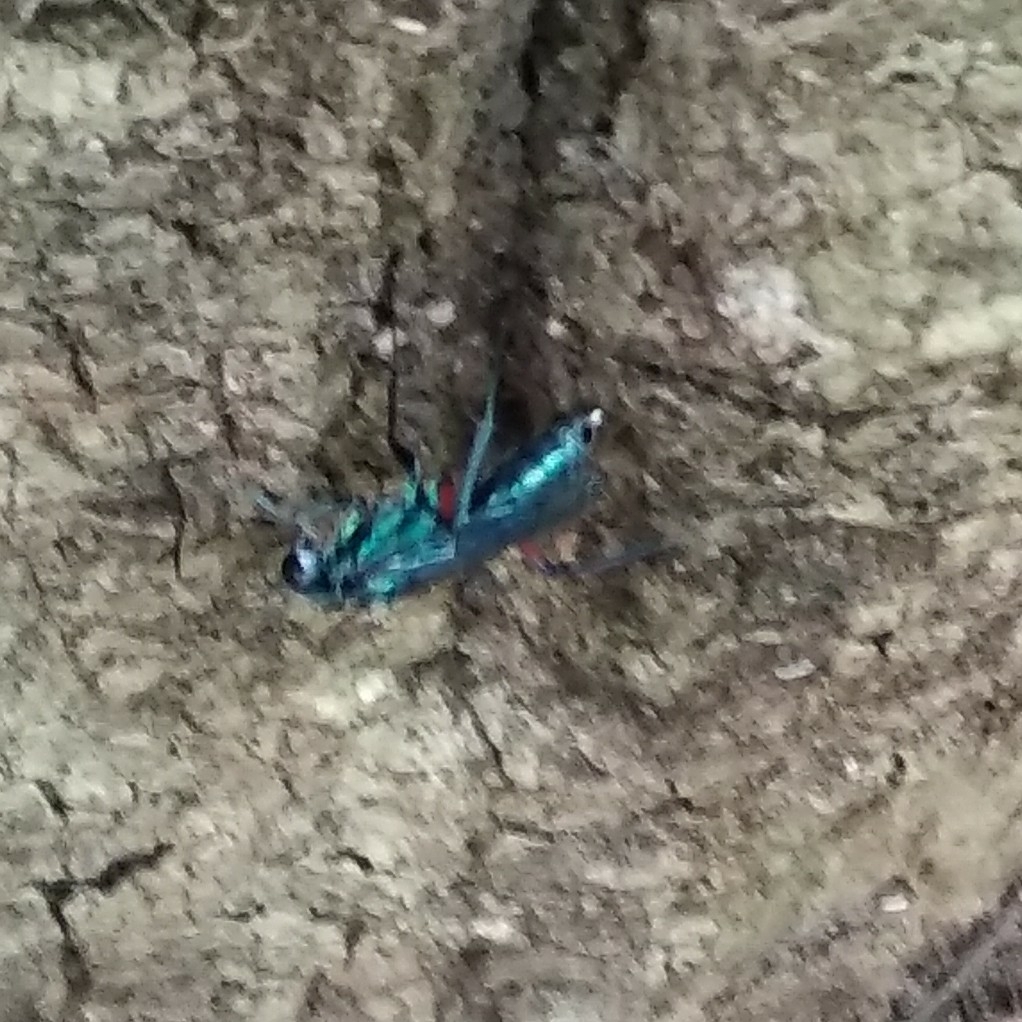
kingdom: Animalia
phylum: Arthropoda
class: Insecta
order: Hymenoptera
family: Ampulicidae
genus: Ampulex
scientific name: Ampulex compressa
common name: Emerald cockroach wasp
